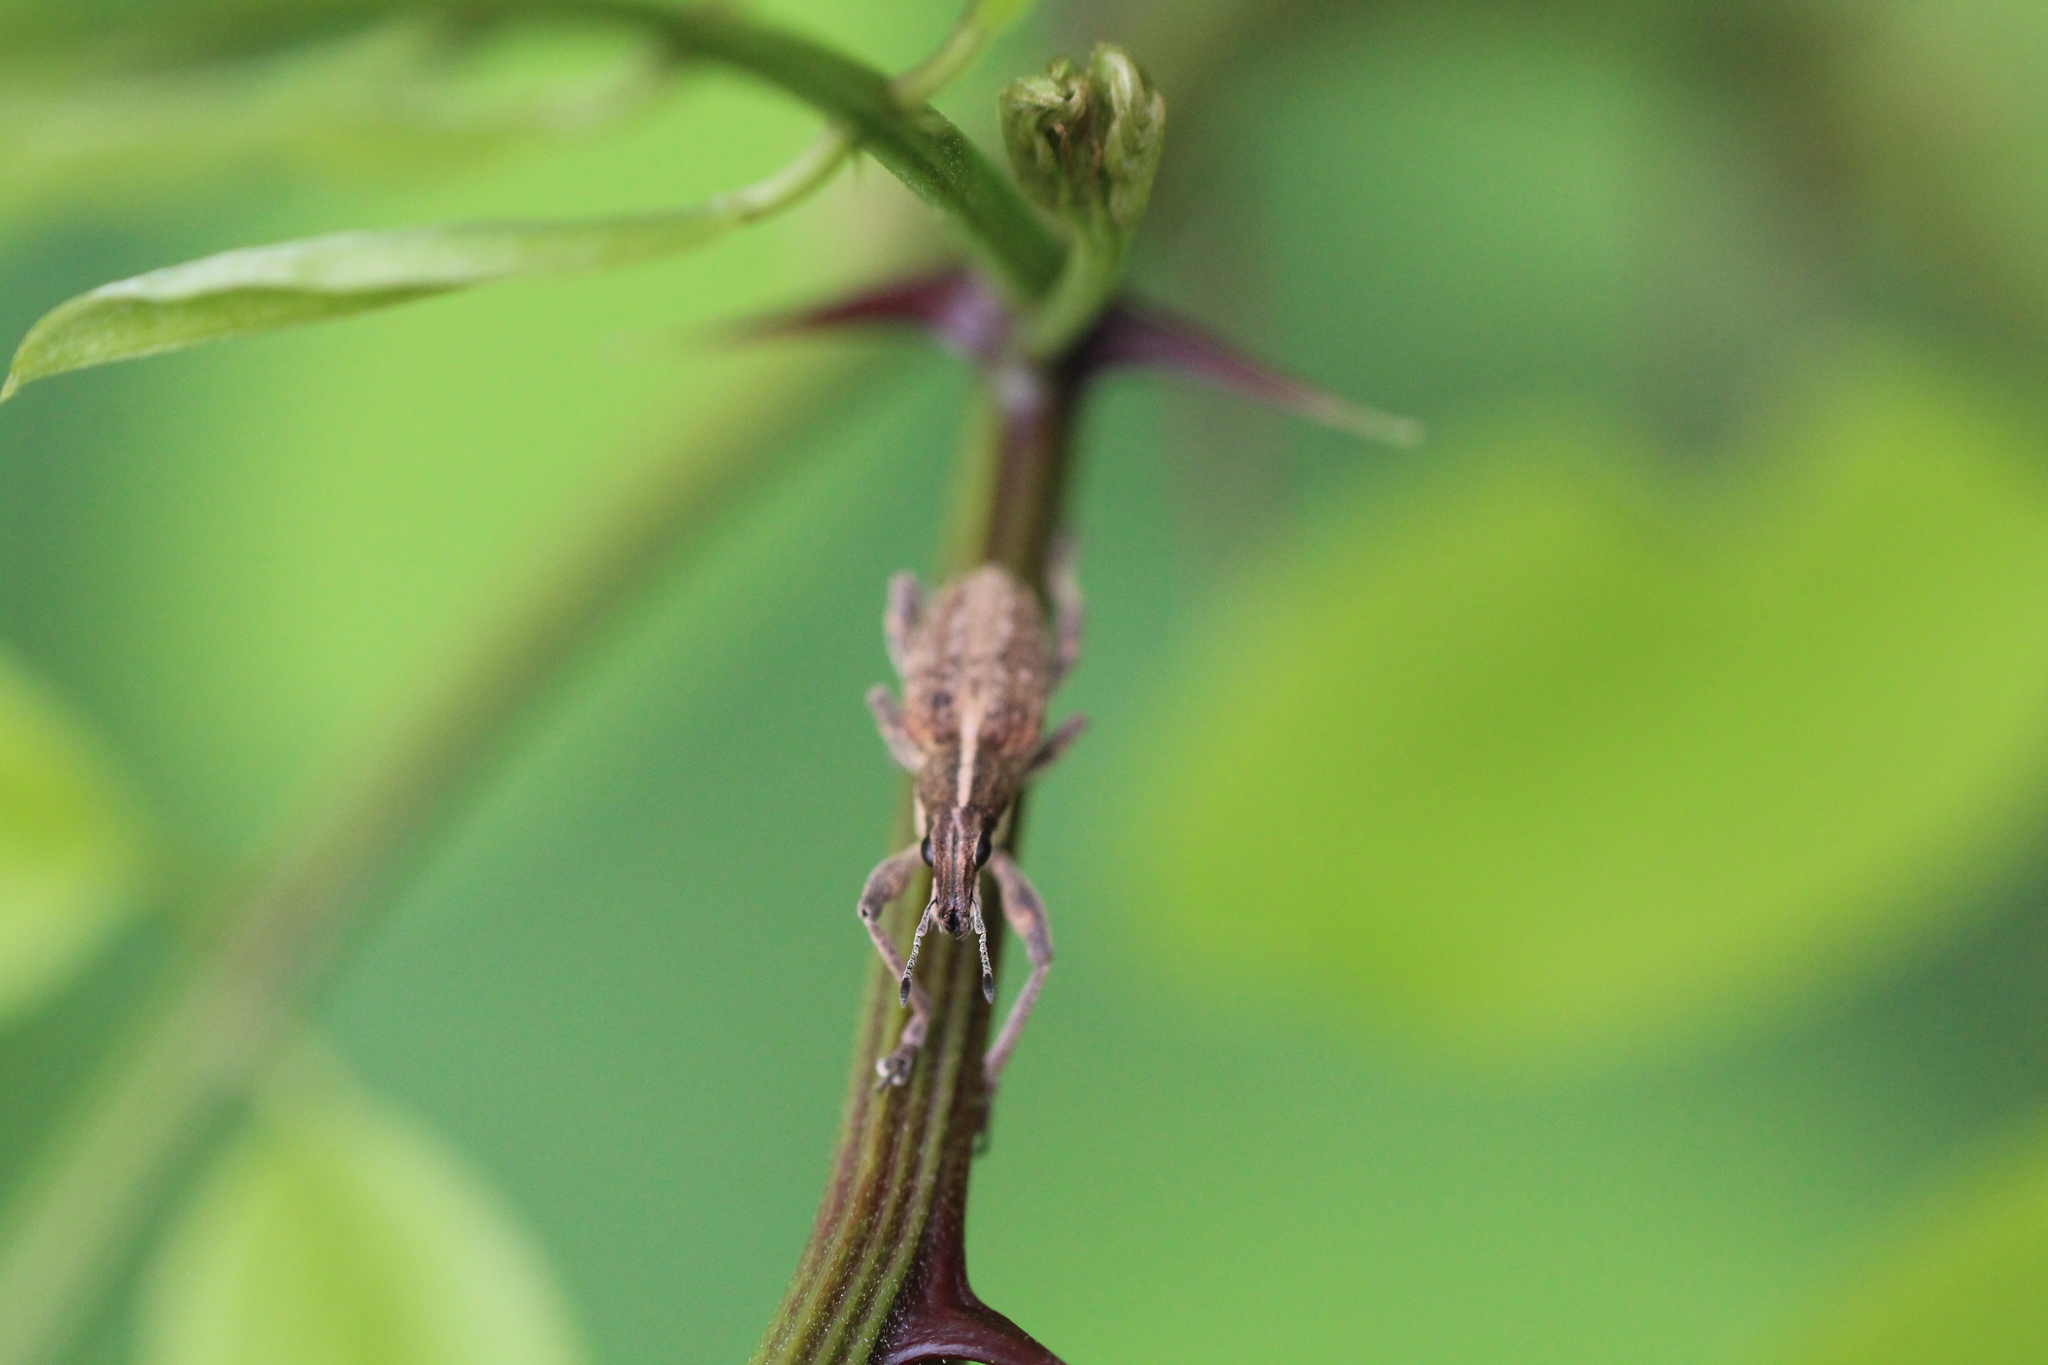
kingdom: Animalia
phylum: Arthropoda
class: Insecta
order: Coleoptera
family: Curculionidae
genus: Charagmus
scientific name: Charagmus gressorius
